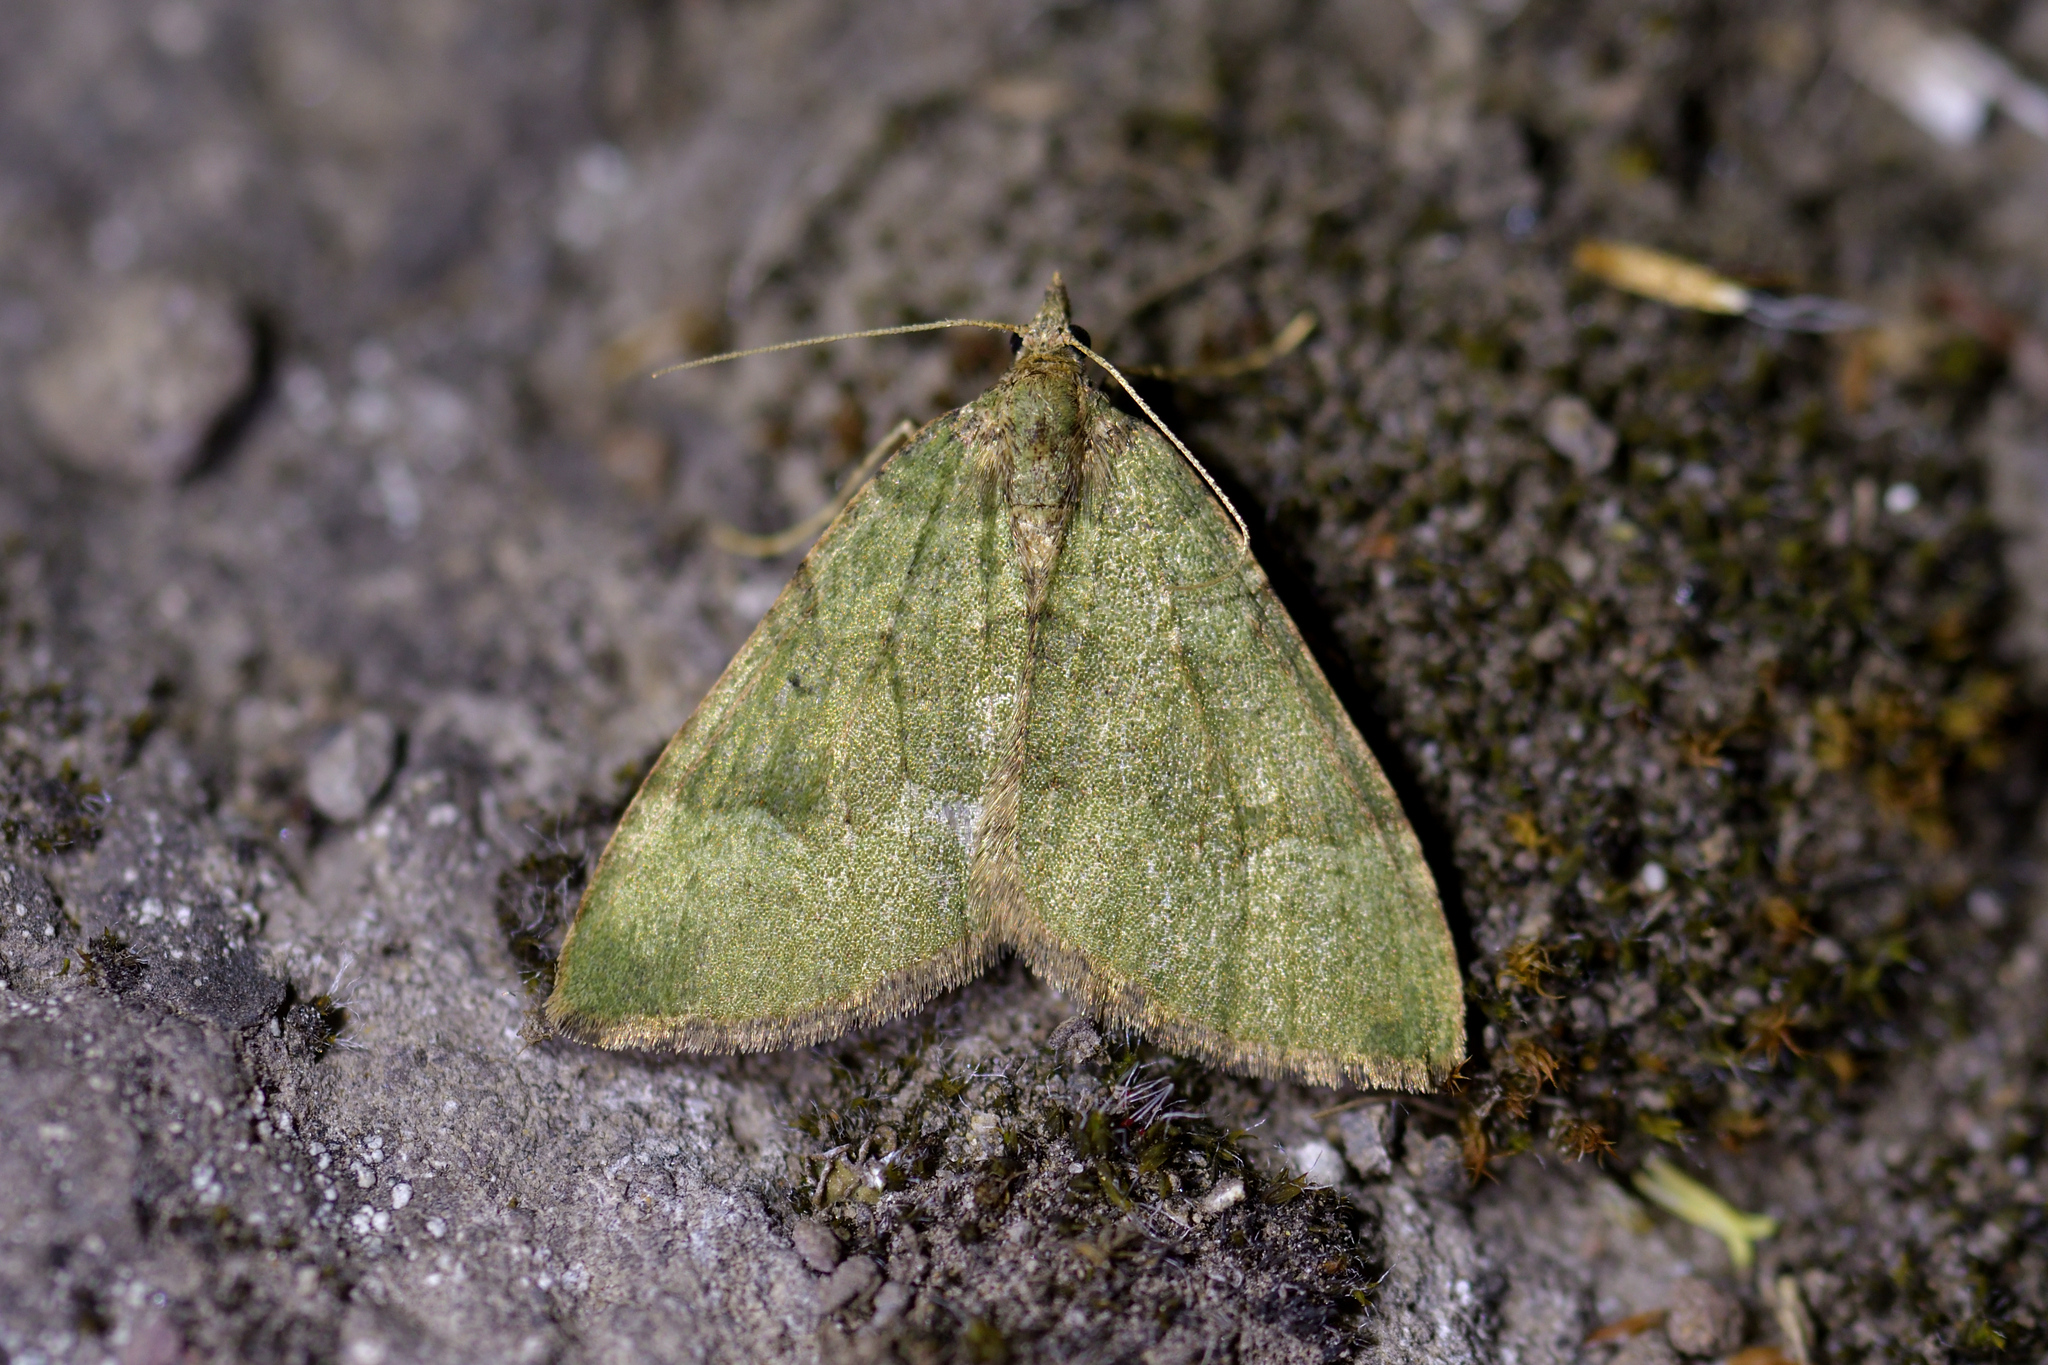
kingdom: Animalia
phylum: Arthropoda
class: Insecta
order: Lepidoptera
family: Geometridae
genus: Epyaxa
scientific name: Epyaxa rosearia
